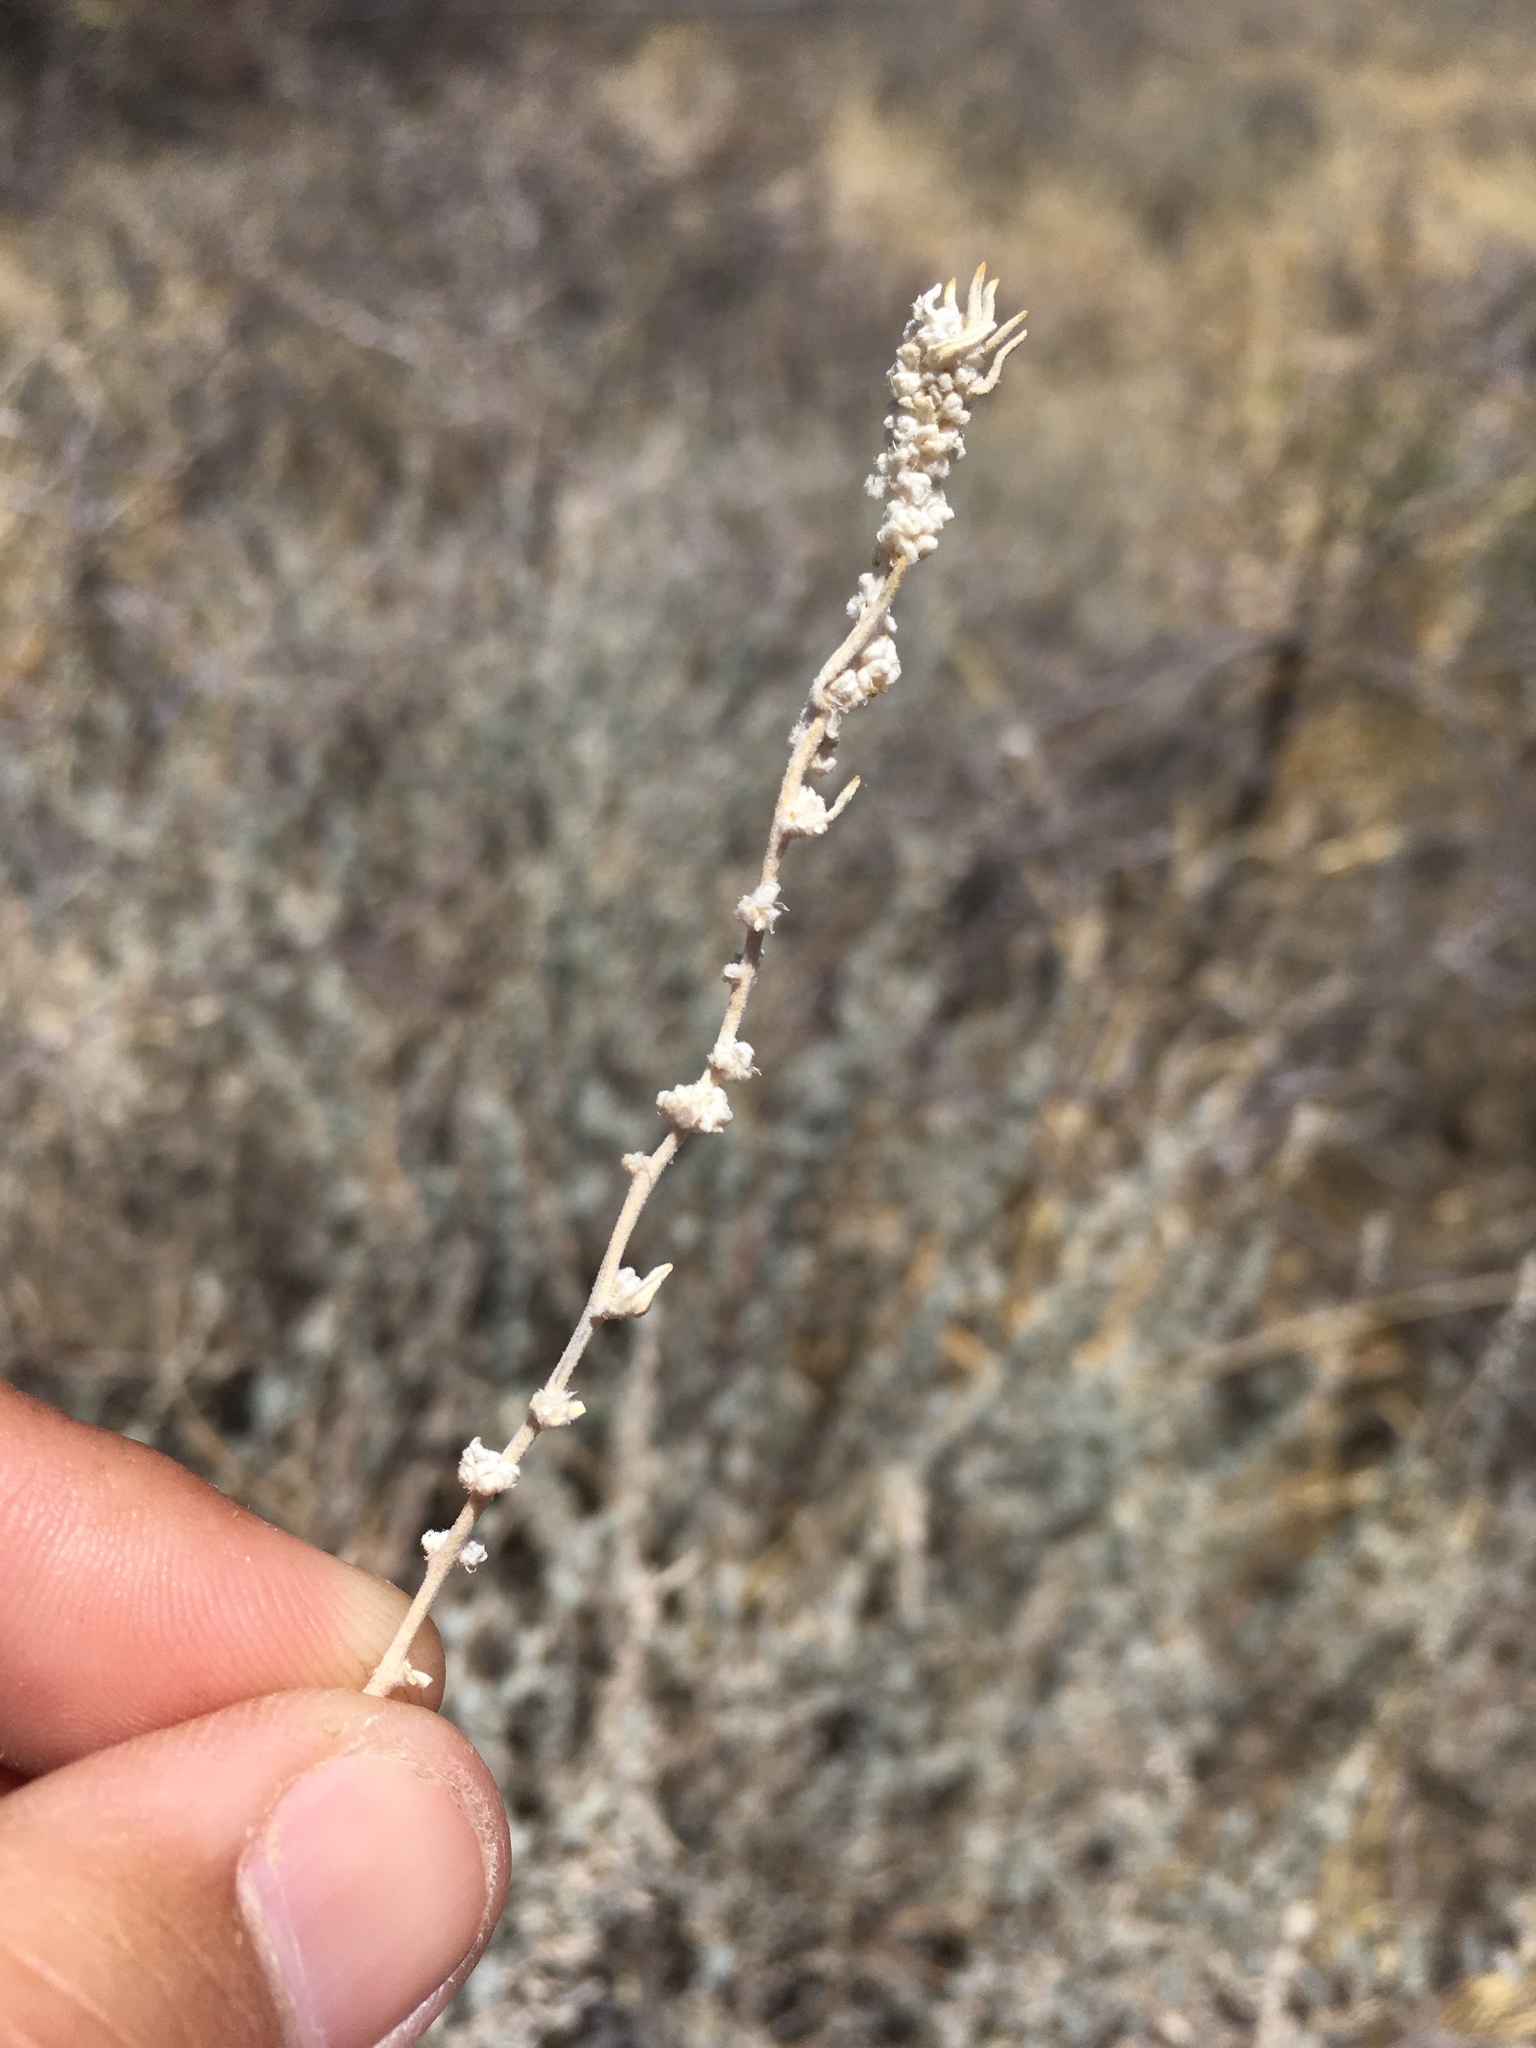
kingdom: Plantae
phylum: Tracheophyta
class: Magnoliopsida
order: Caryophyllales
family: Amaranthaceae
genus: Krascheninnikovia
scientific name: Krascheninnikovia lanata
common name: Winterfat
